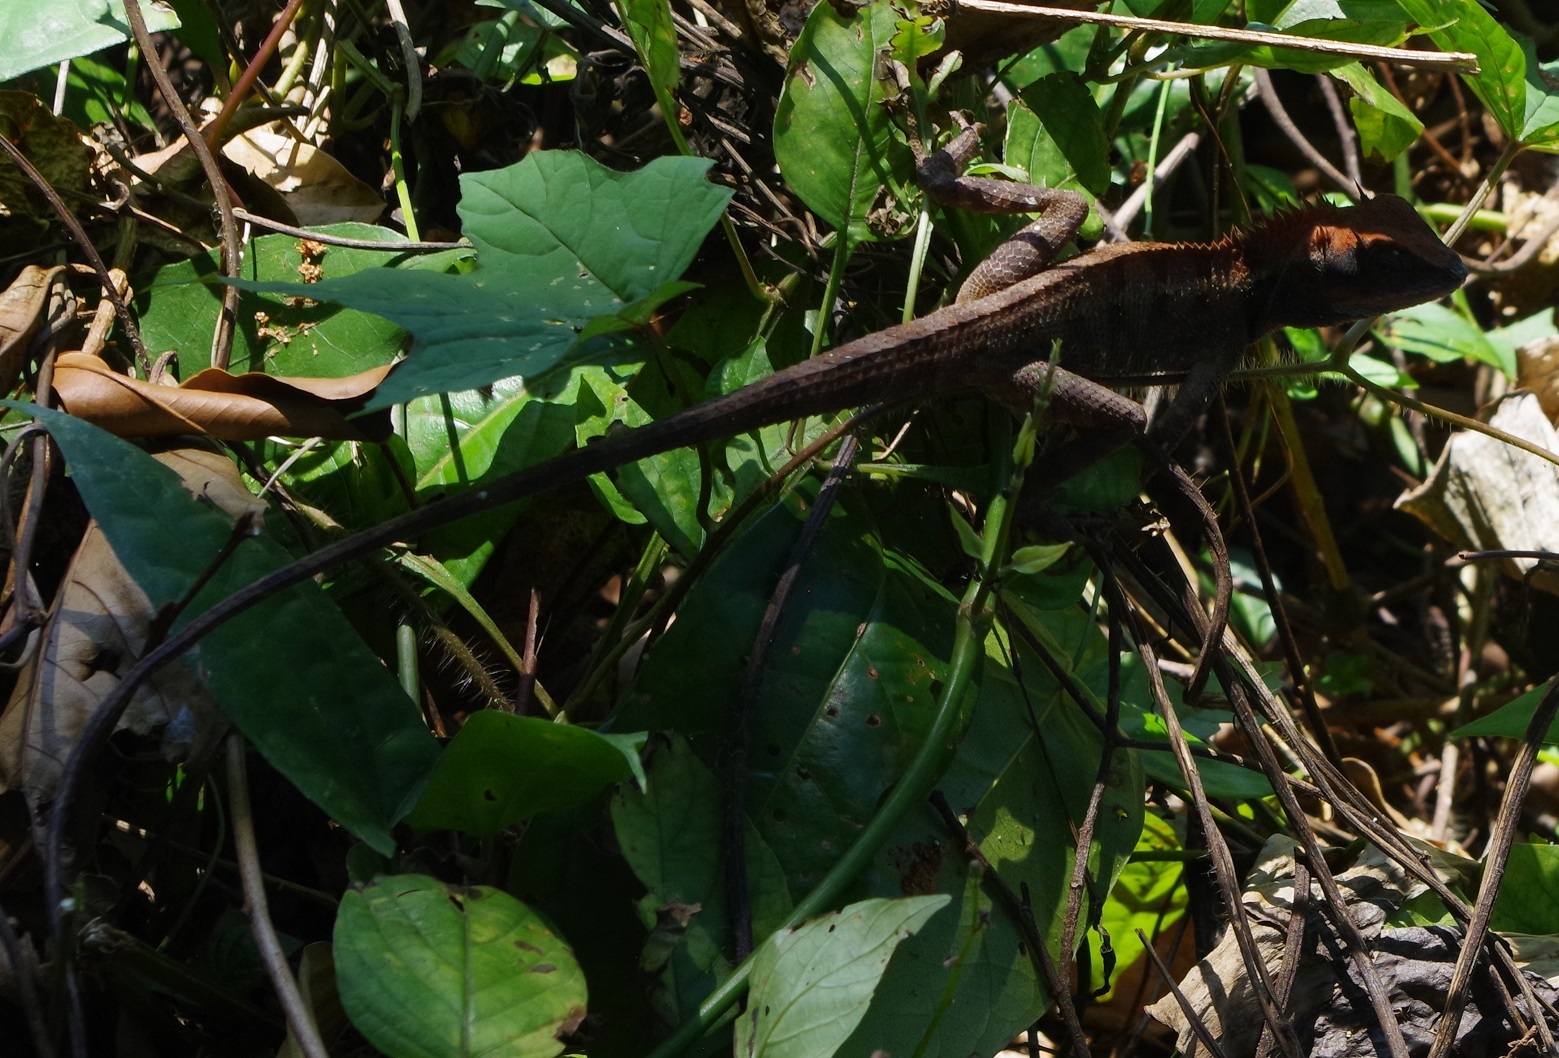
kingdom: Animalia
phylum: Chordata
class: Squamata
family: Agamidae
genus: Calotes
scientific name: Calotes emma
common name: Thailand bloodsucker
